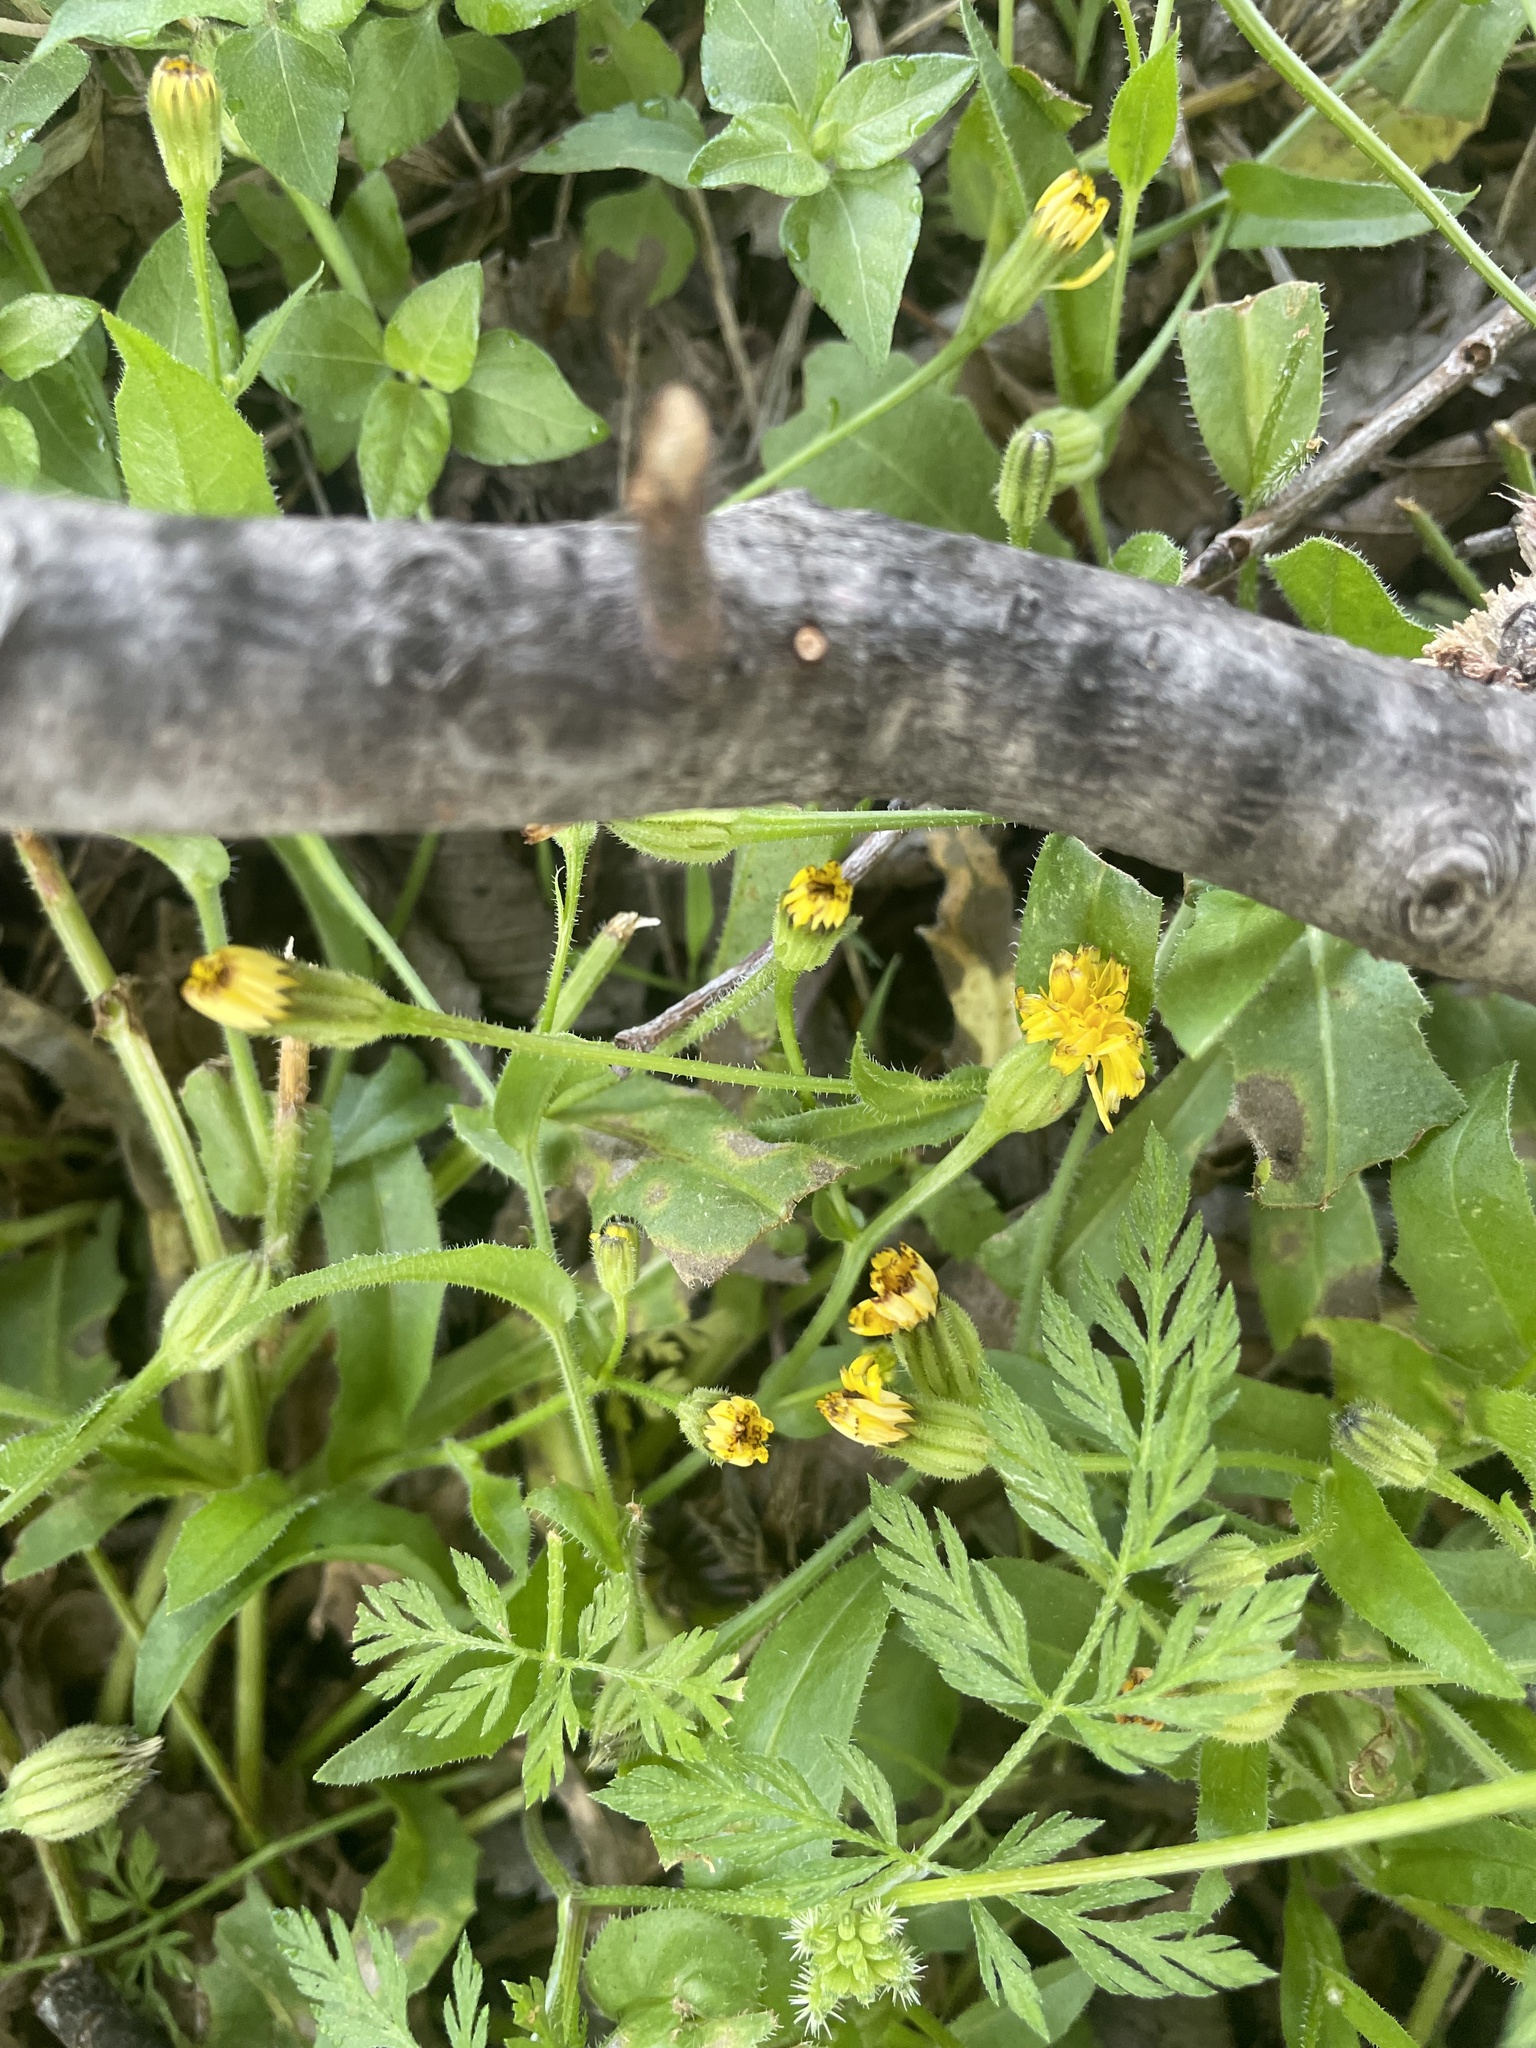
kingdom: Plantae
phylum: Tracheophyta
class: Magnoliopsida
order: Asterales
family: Asteraceae
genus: Hedypnois
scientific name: Hedypnois rhagadioloides
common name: Cretan weed
